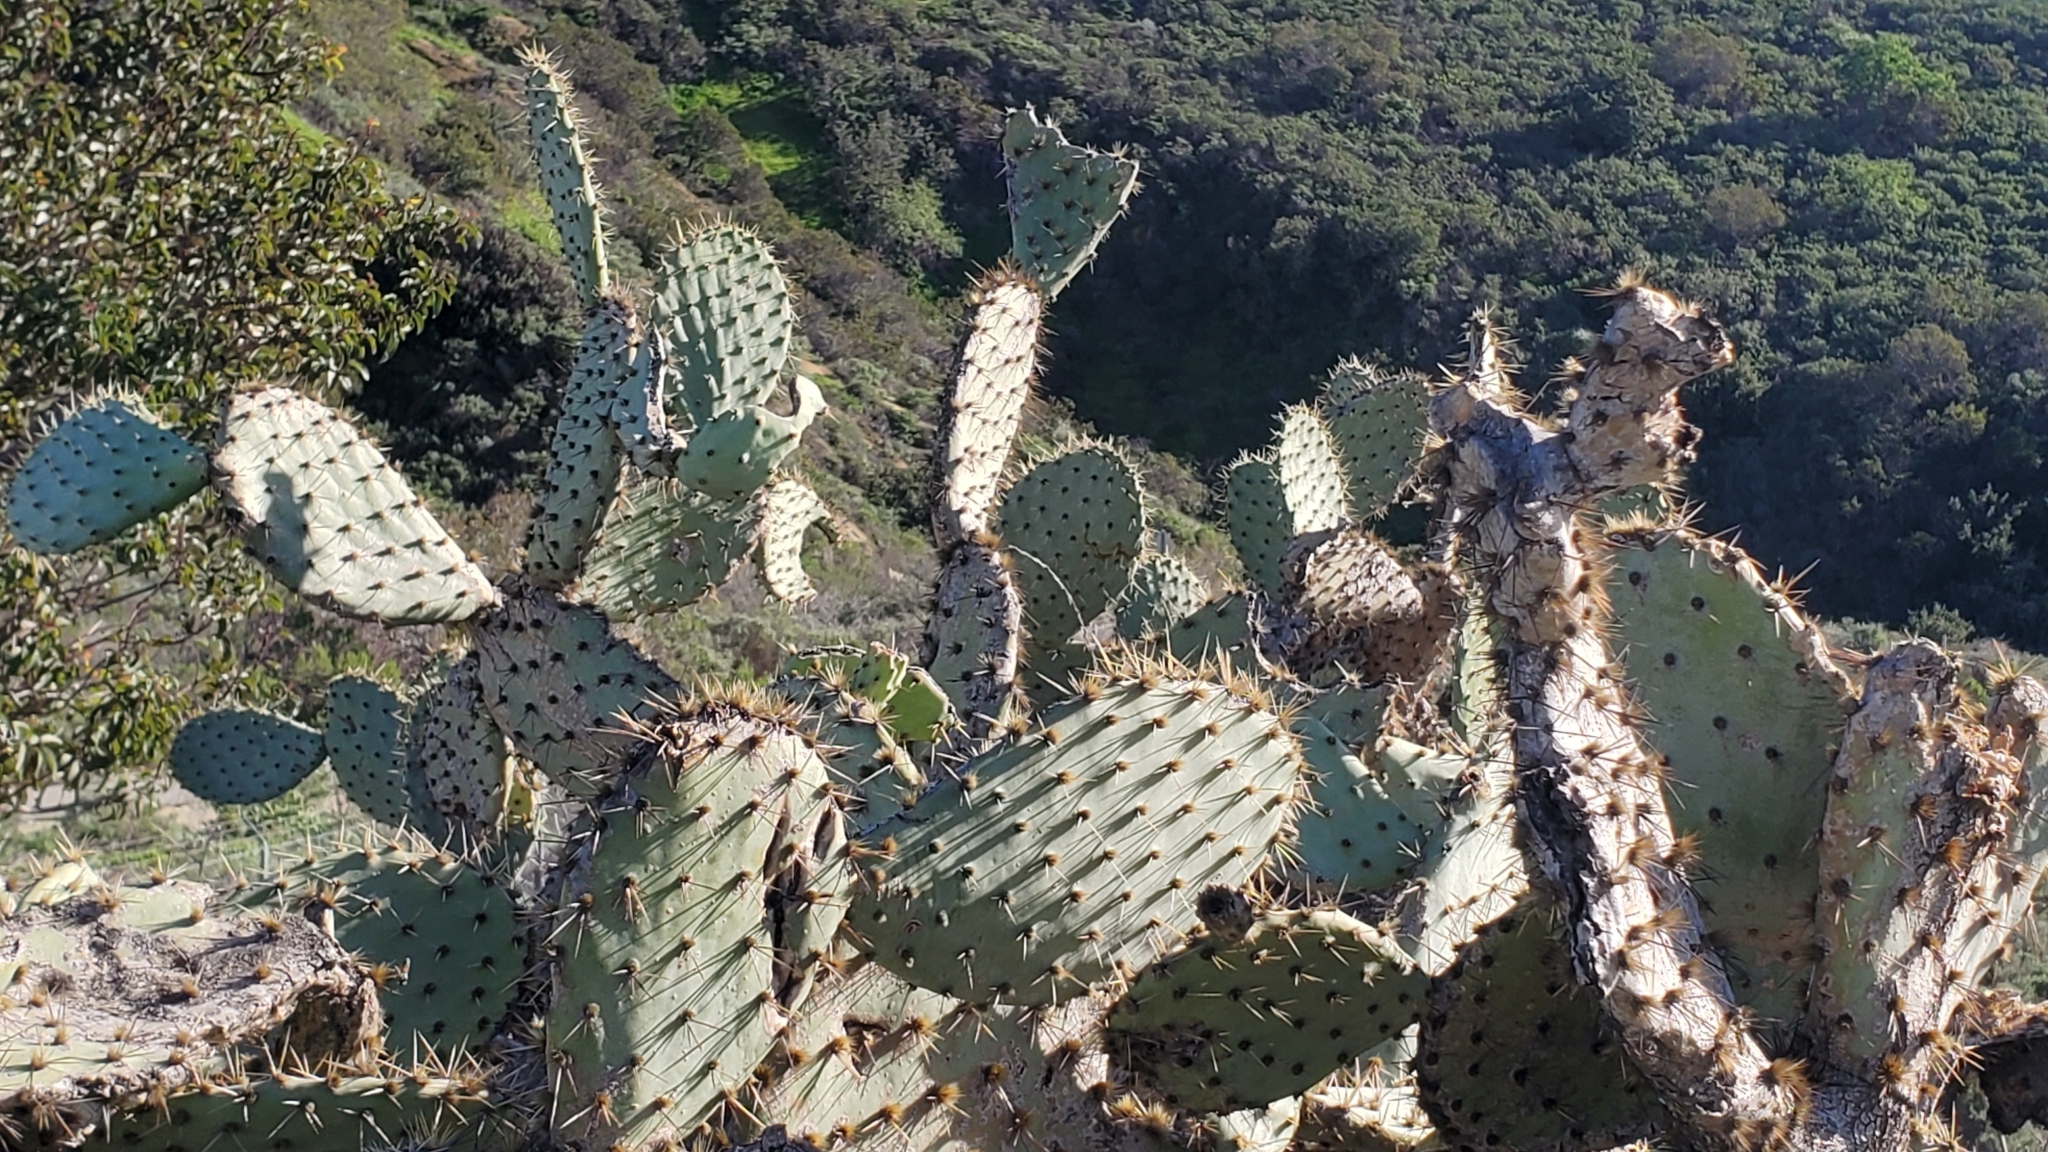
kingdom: Plantae
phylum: Tracheophyta
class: Magnoliopsida
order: Caryophyllales
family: Cactaceae
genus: Opuntia
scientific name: Opuntia littoralis
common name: Coastal prickly-pear
